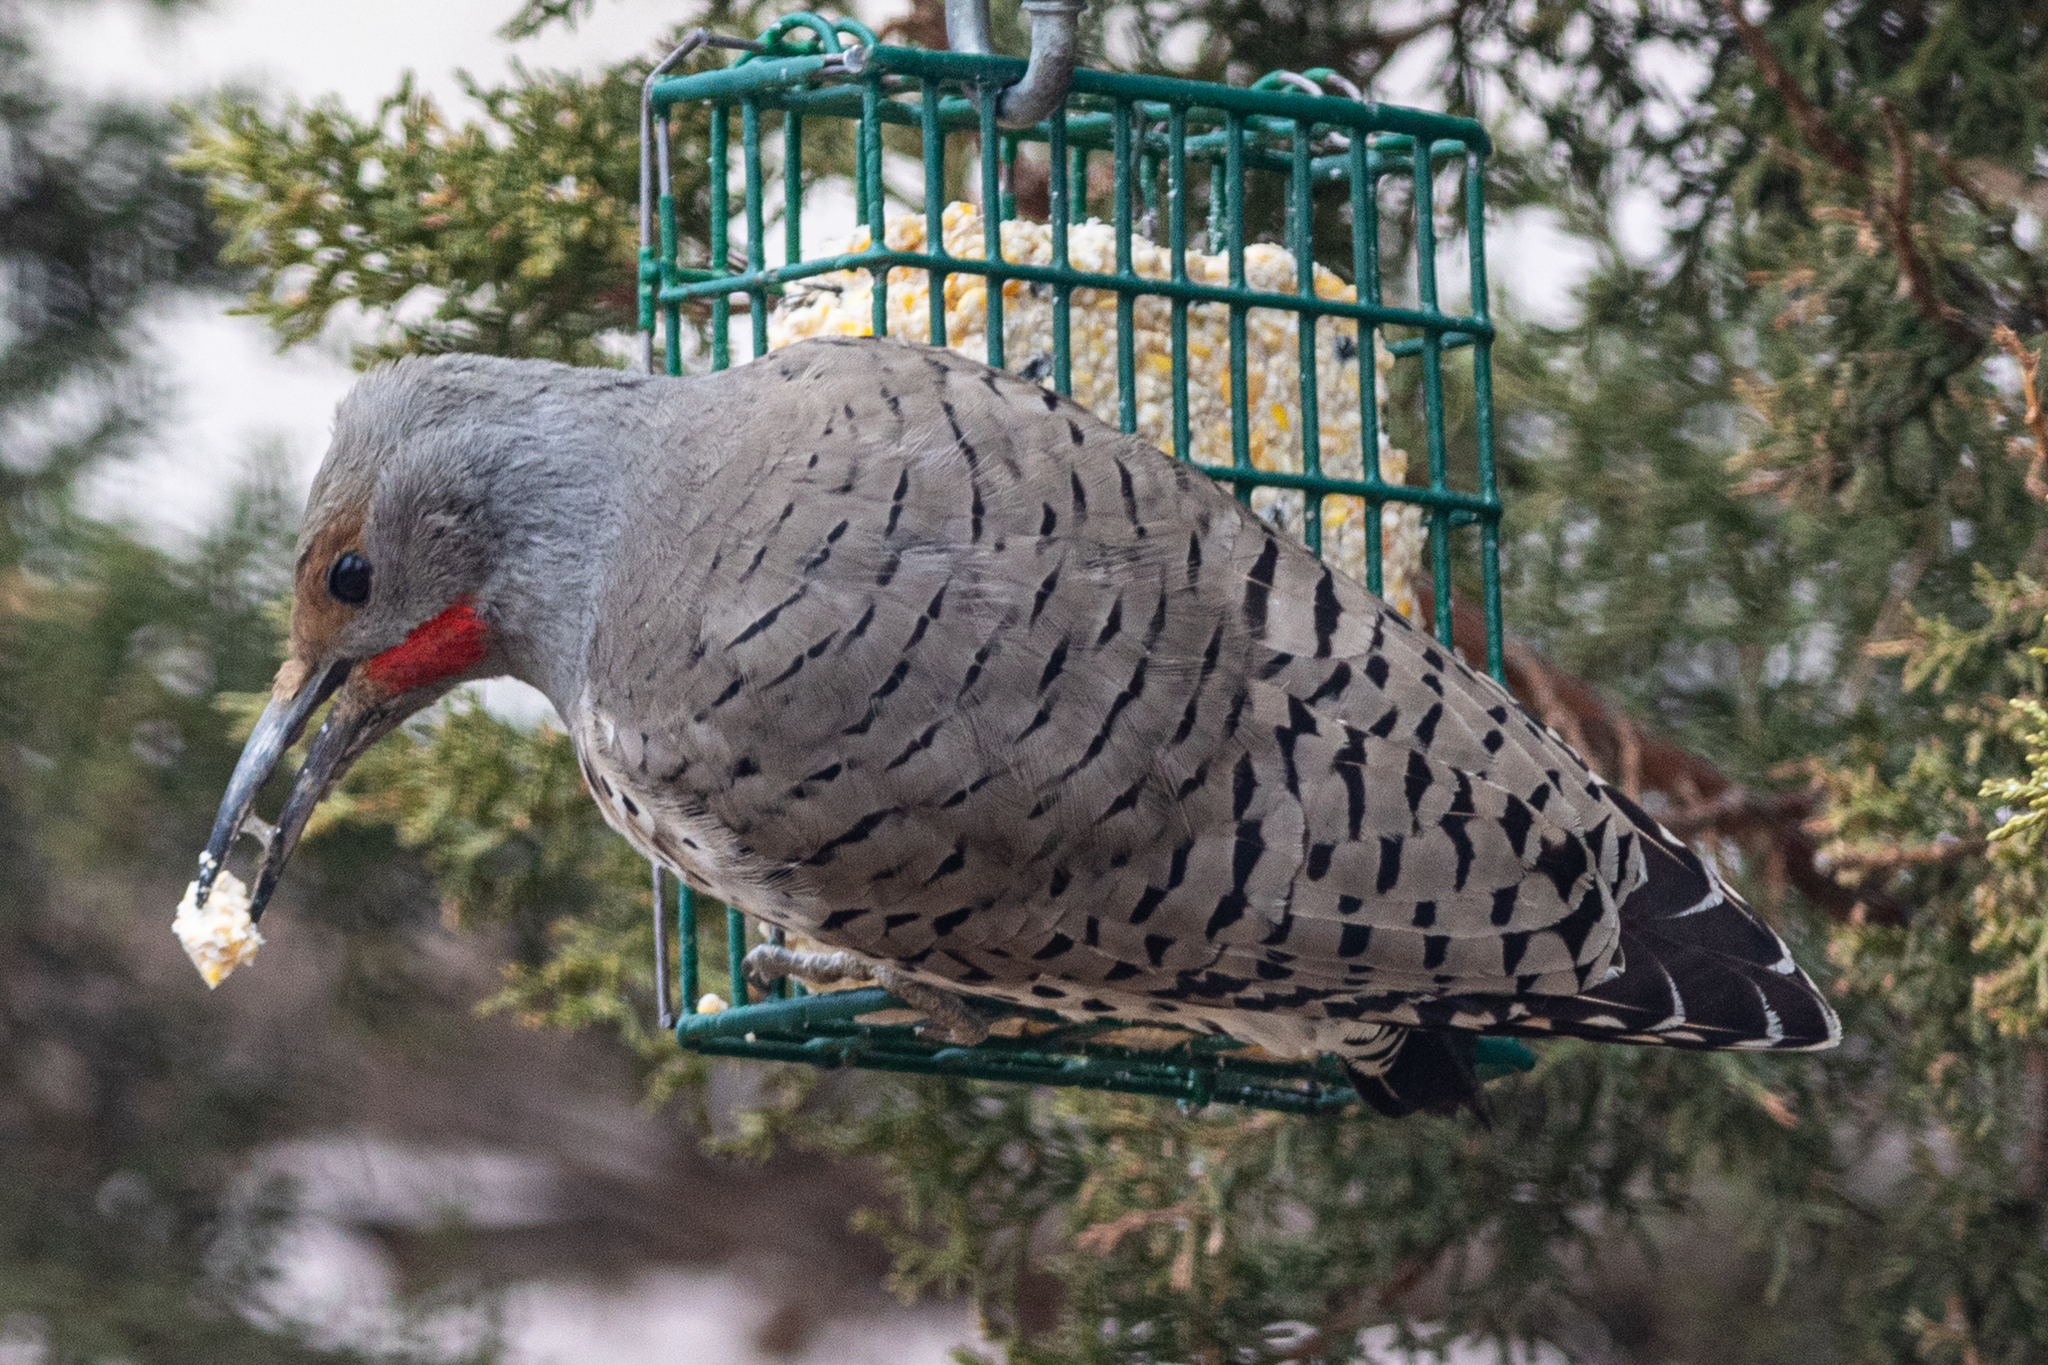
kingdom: Animalia
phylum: Chordata
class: Aves
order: Piciformes
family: Picidae
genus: Colaptes
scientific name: Colaptes auratus
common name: Northern flicker
